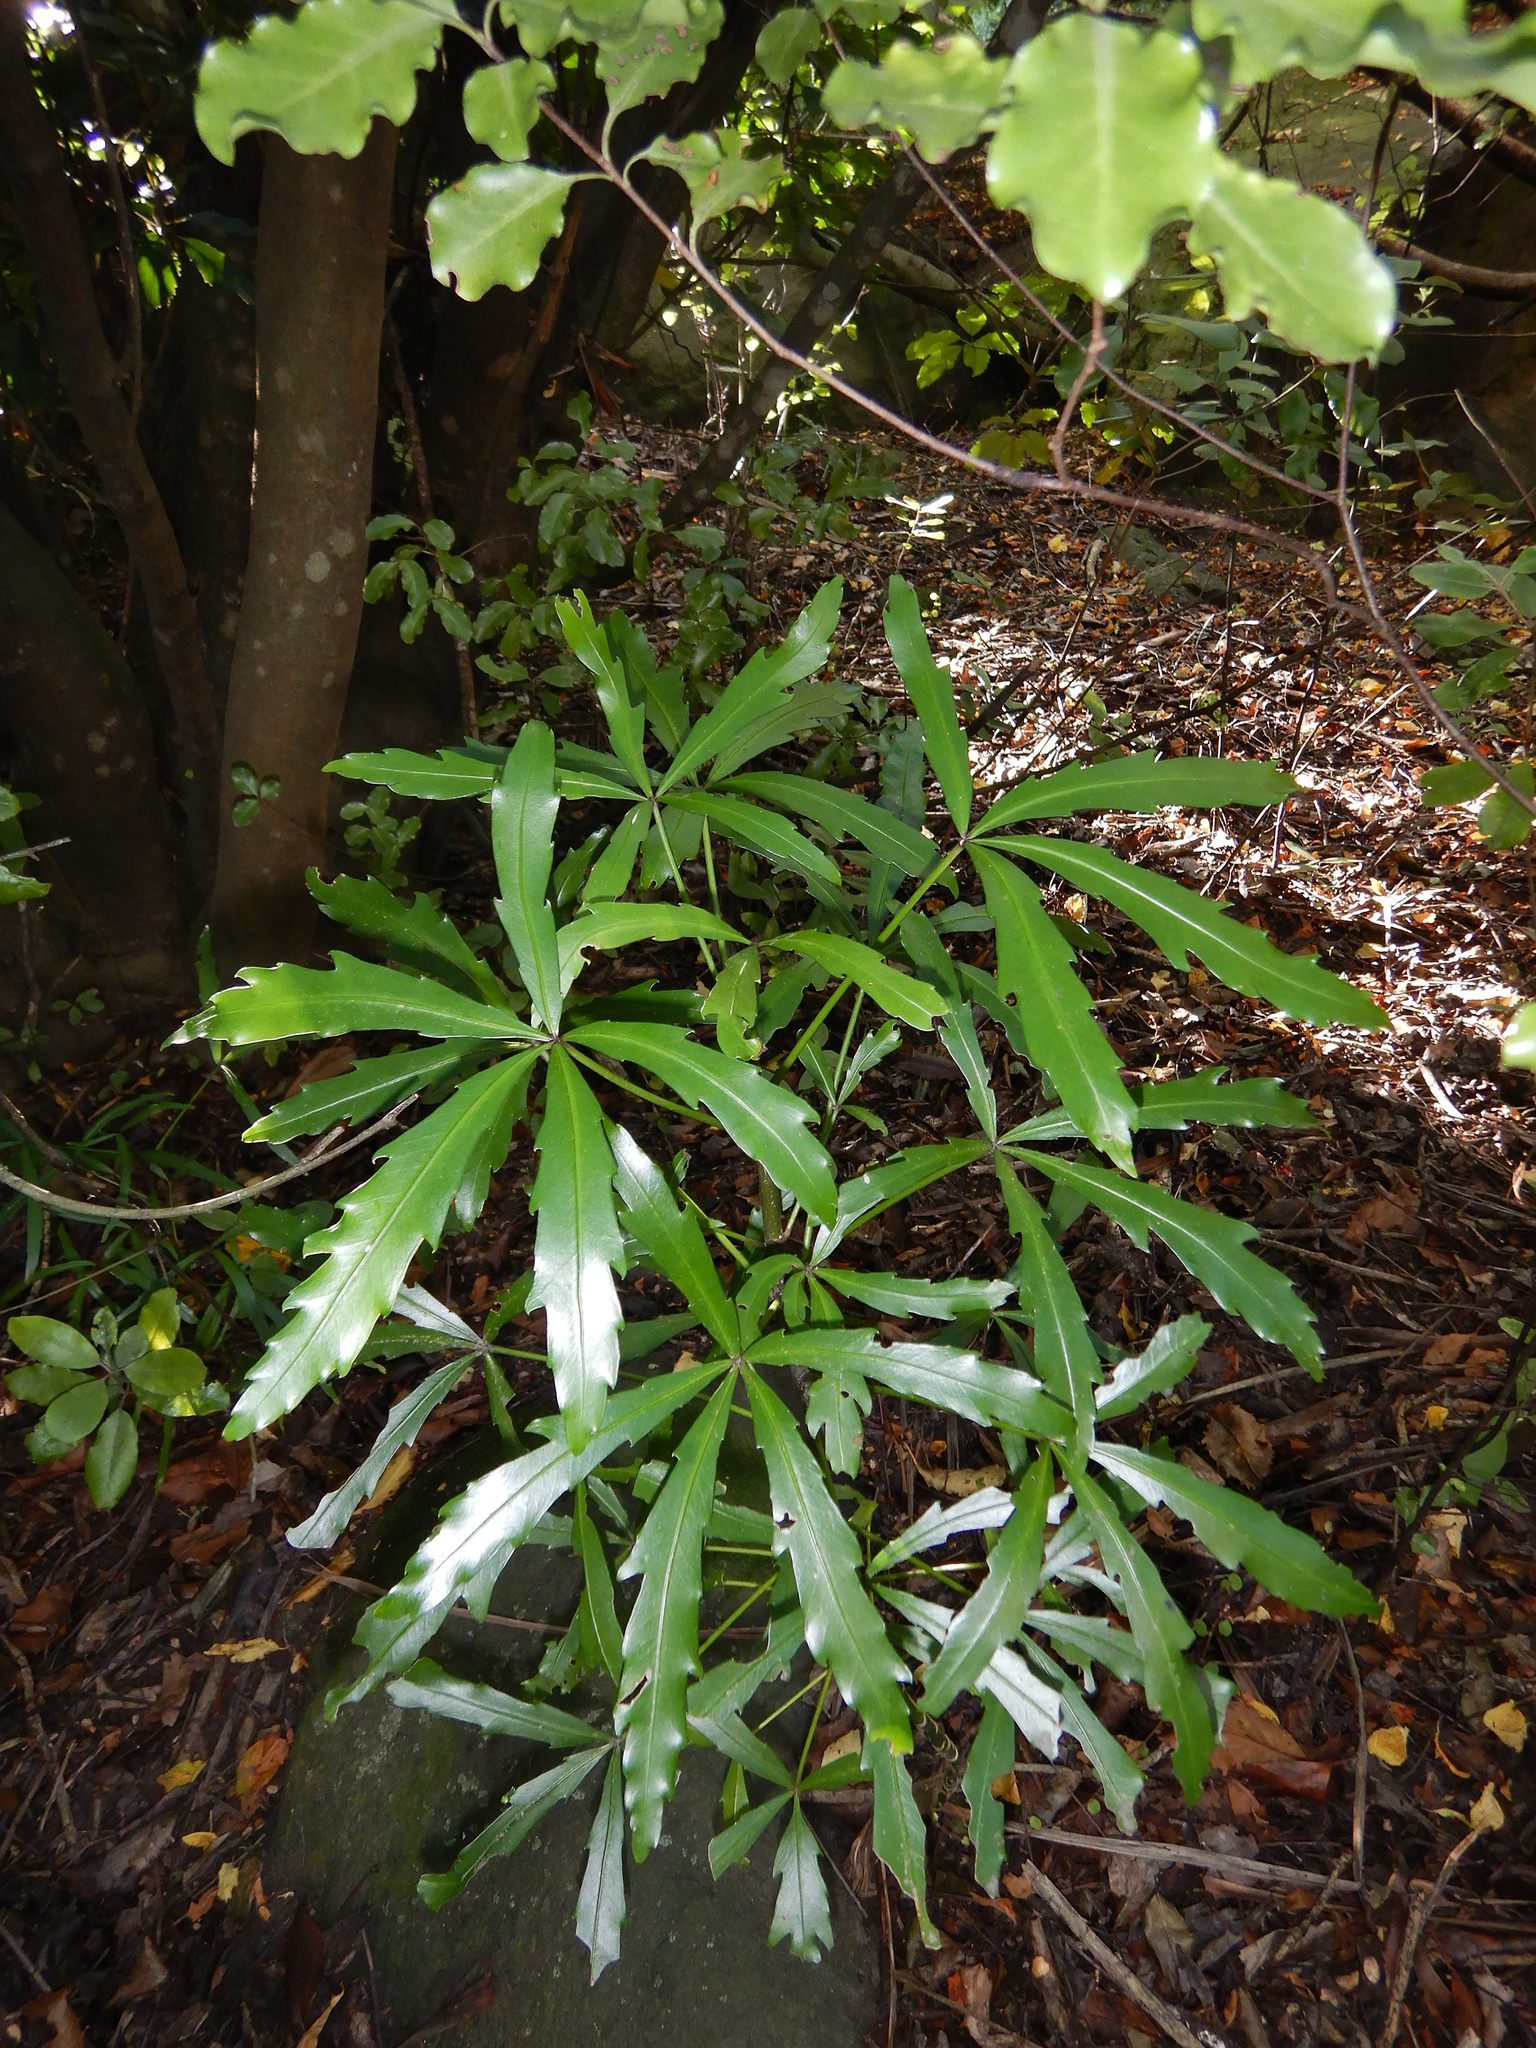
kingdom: Plantae
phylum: Tracheophyta
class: Magnoliopsida
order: Apiales
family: Araliaceae
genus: Pseudopanax
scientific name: Pseudopanax
